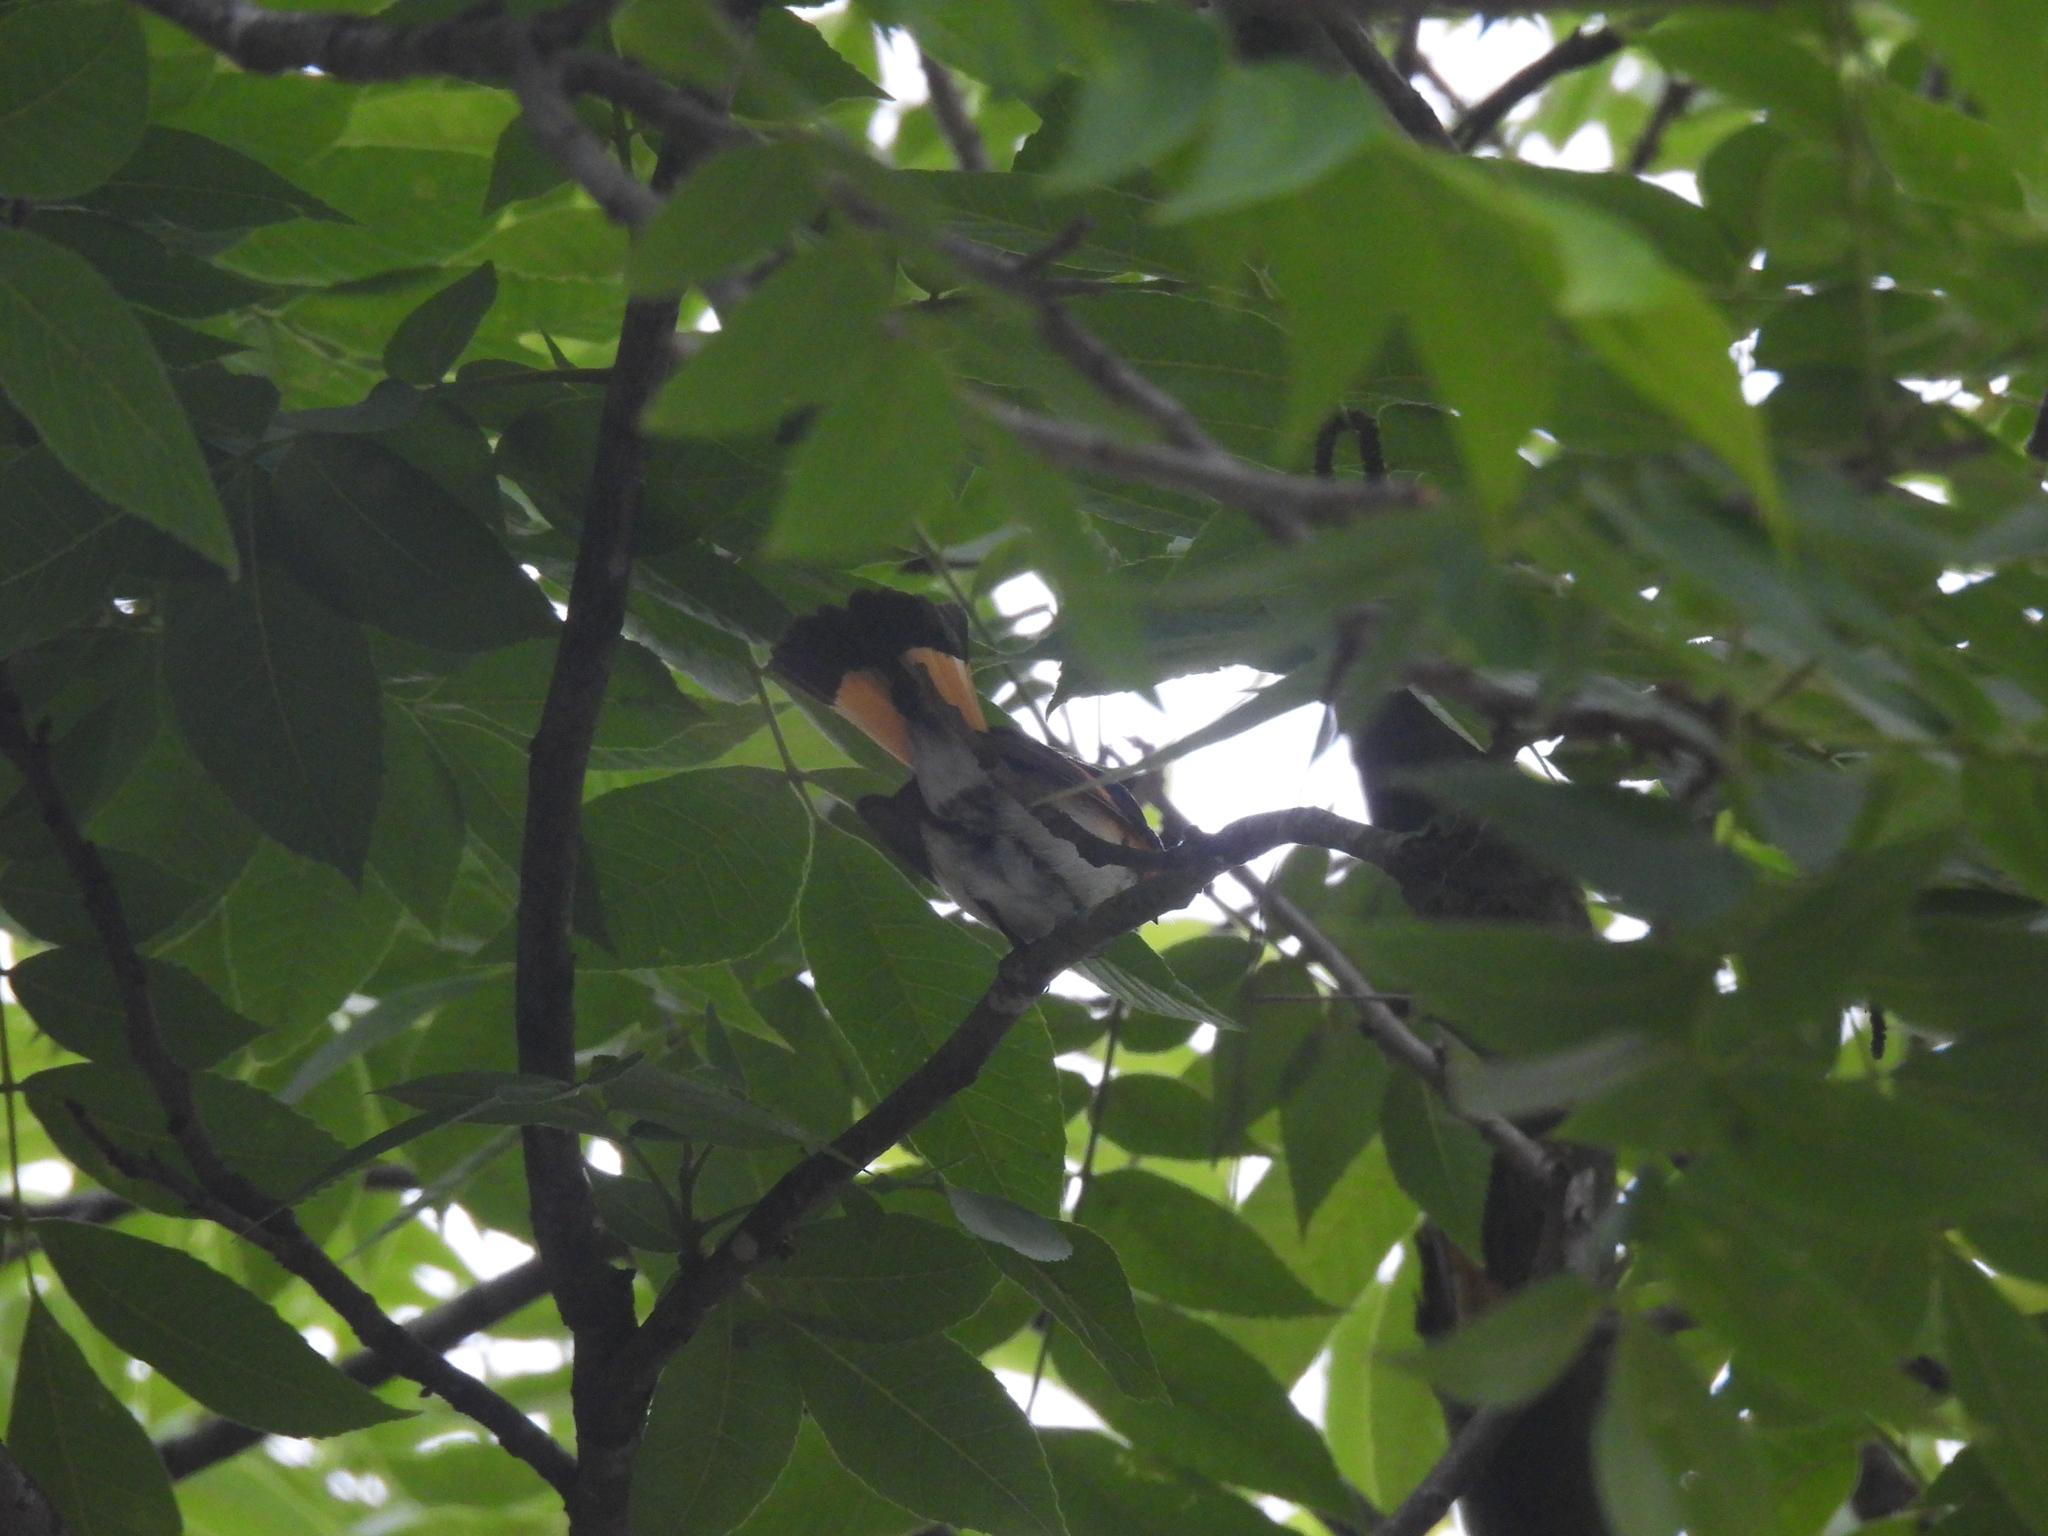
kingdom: Animalia
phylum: Chordata
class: Aves
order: Passeriformes
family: Parulidae
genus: Setophaga
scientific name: Setophaga ruticilla
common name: American redstart
